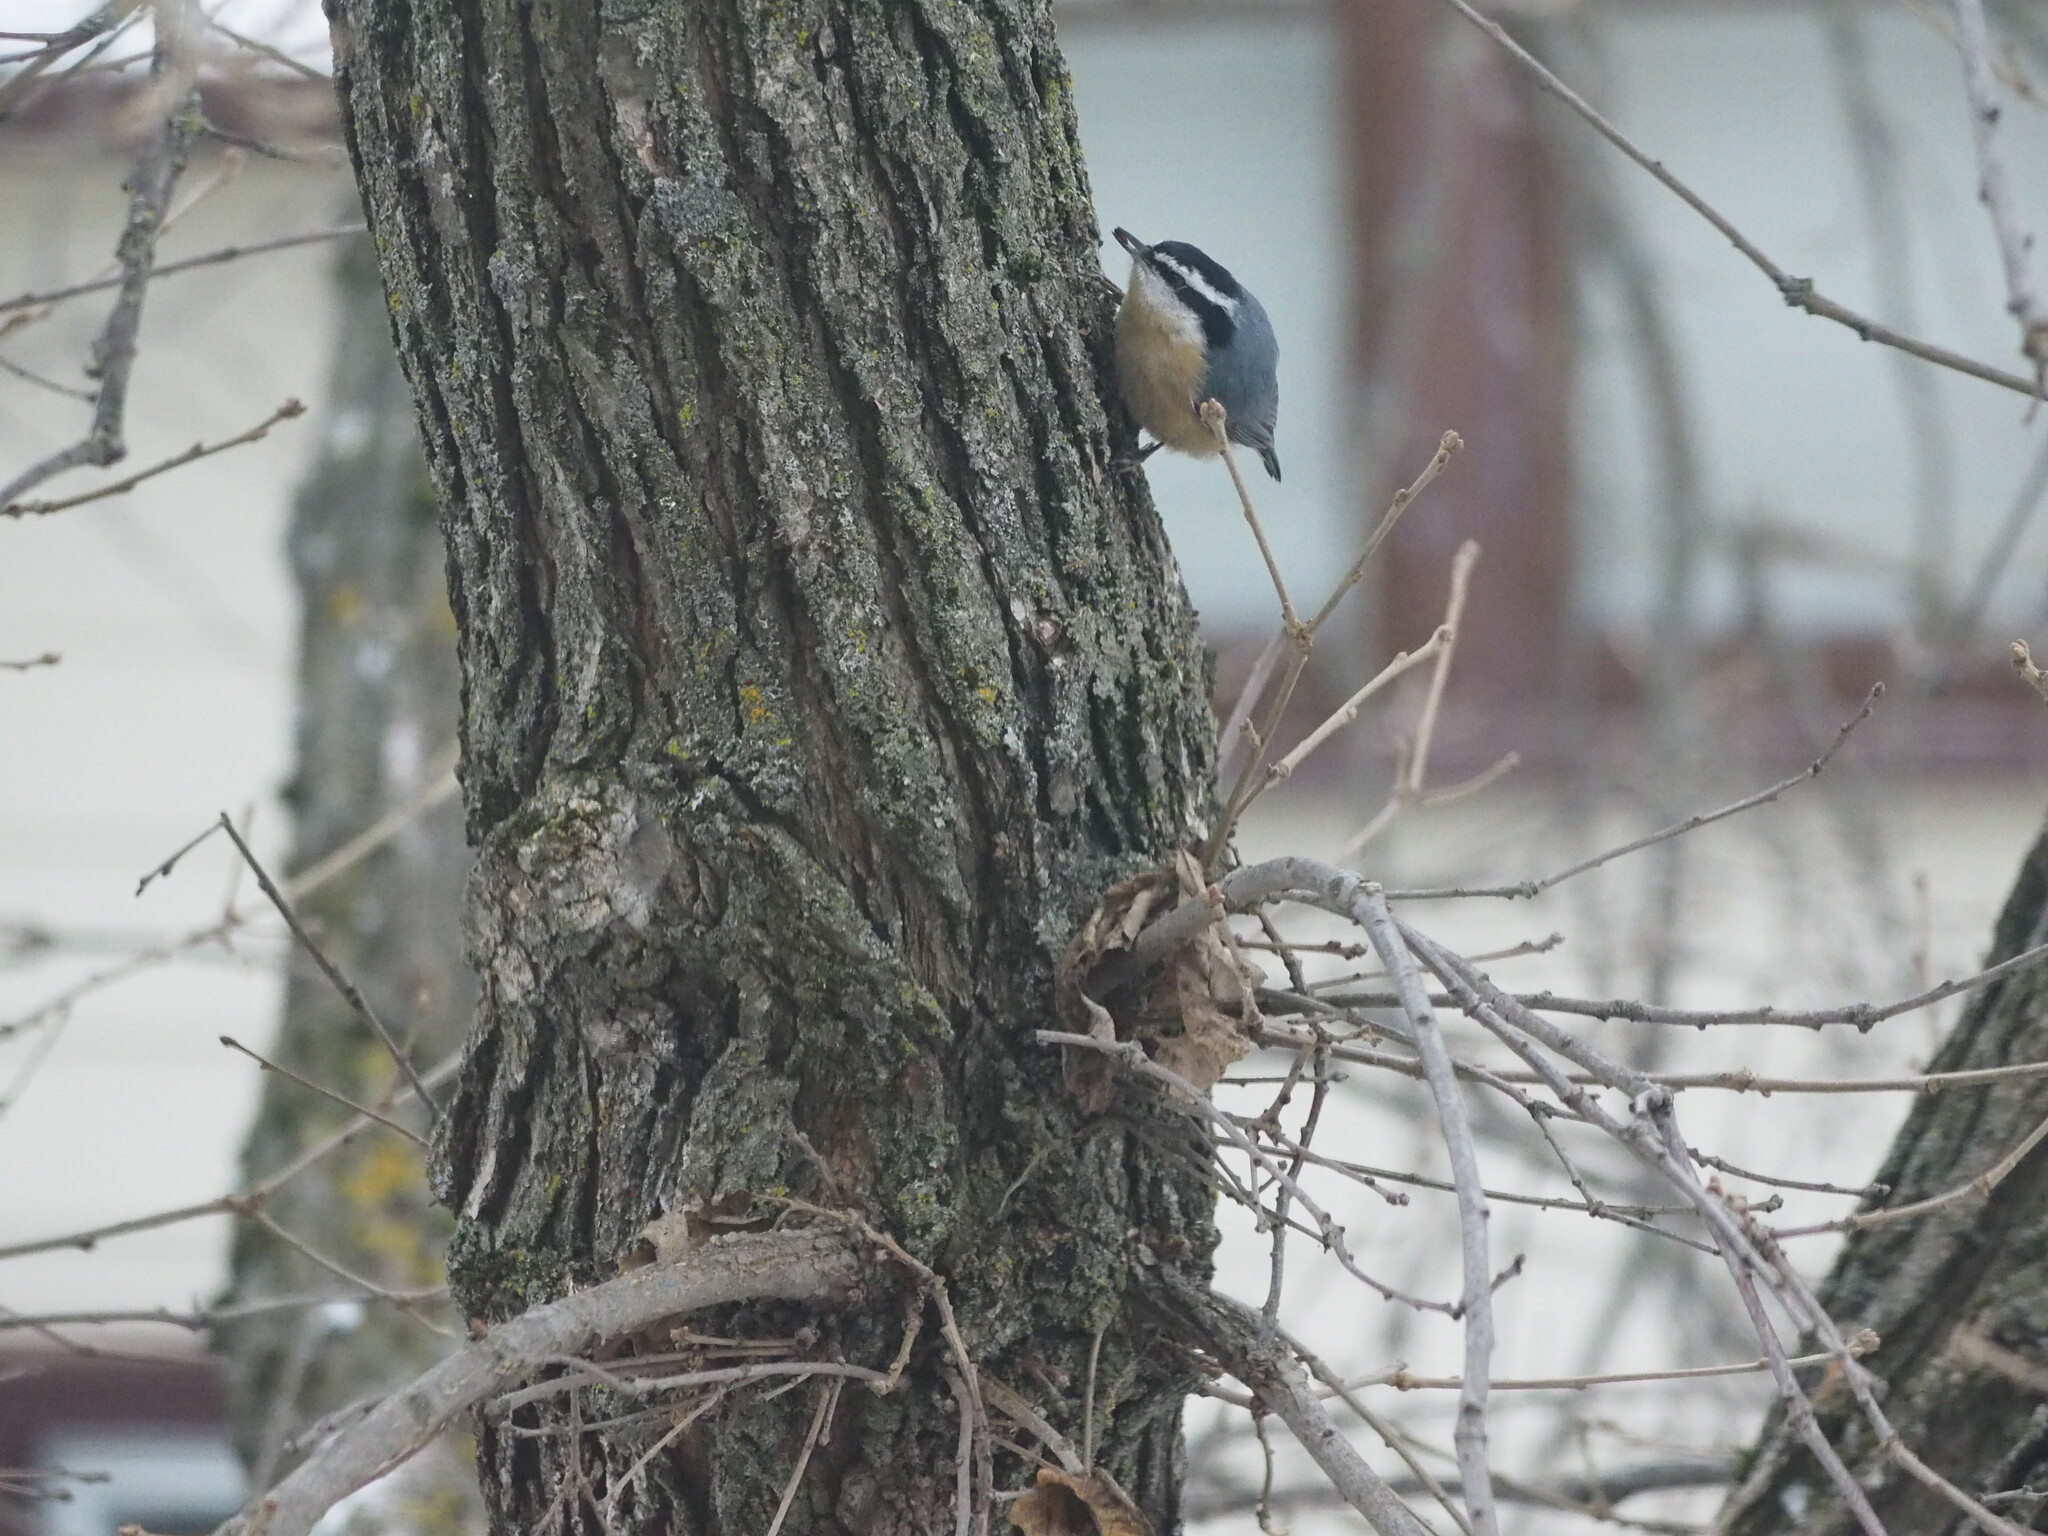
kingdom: Animalia
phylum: Chordata
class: Aves
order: Passeriformes
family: Sittidae
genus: Sitta
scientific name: Sitta canadensis
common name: Red-breasted nuthatch
